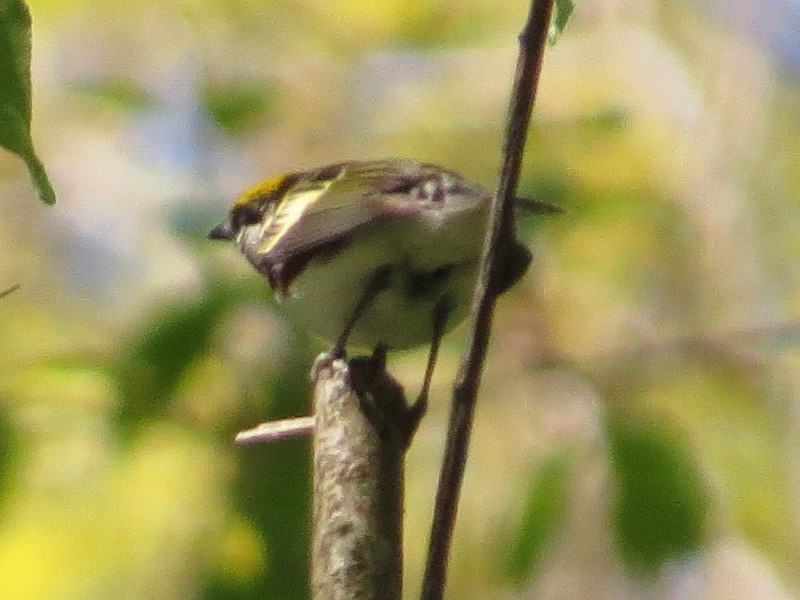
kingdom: Animalia
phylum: Chordata
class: Aves
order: Passeriformes
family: Parulidae
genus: Setophaga
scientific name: Setophaga pensylvanica
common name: Chestnut-sided warbler
